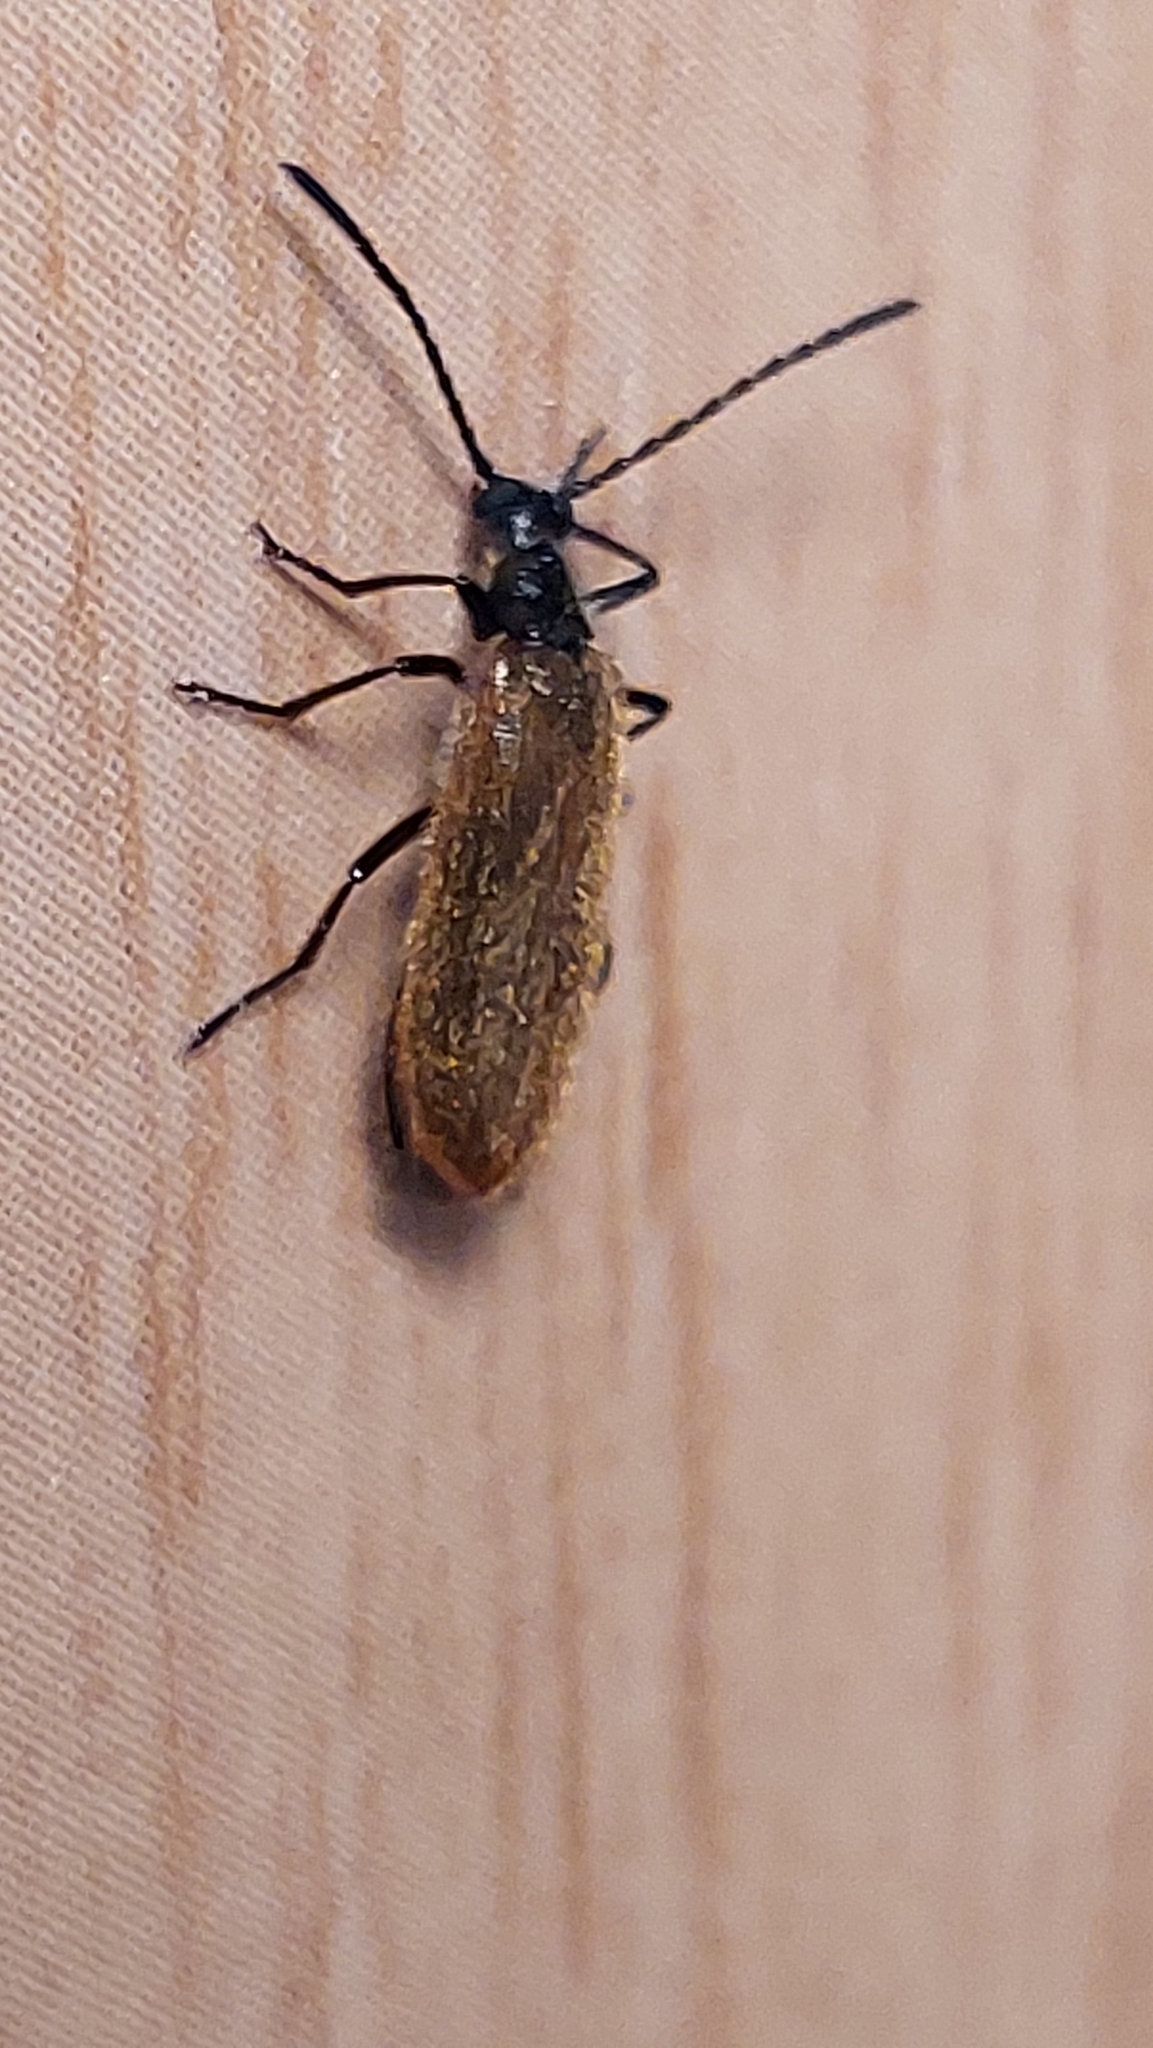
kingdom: Animalia
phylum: Arthropoda
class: Insecta
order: Coleoptera
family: Tenebrionidae
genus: Lagria
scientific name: Lagria hirta
